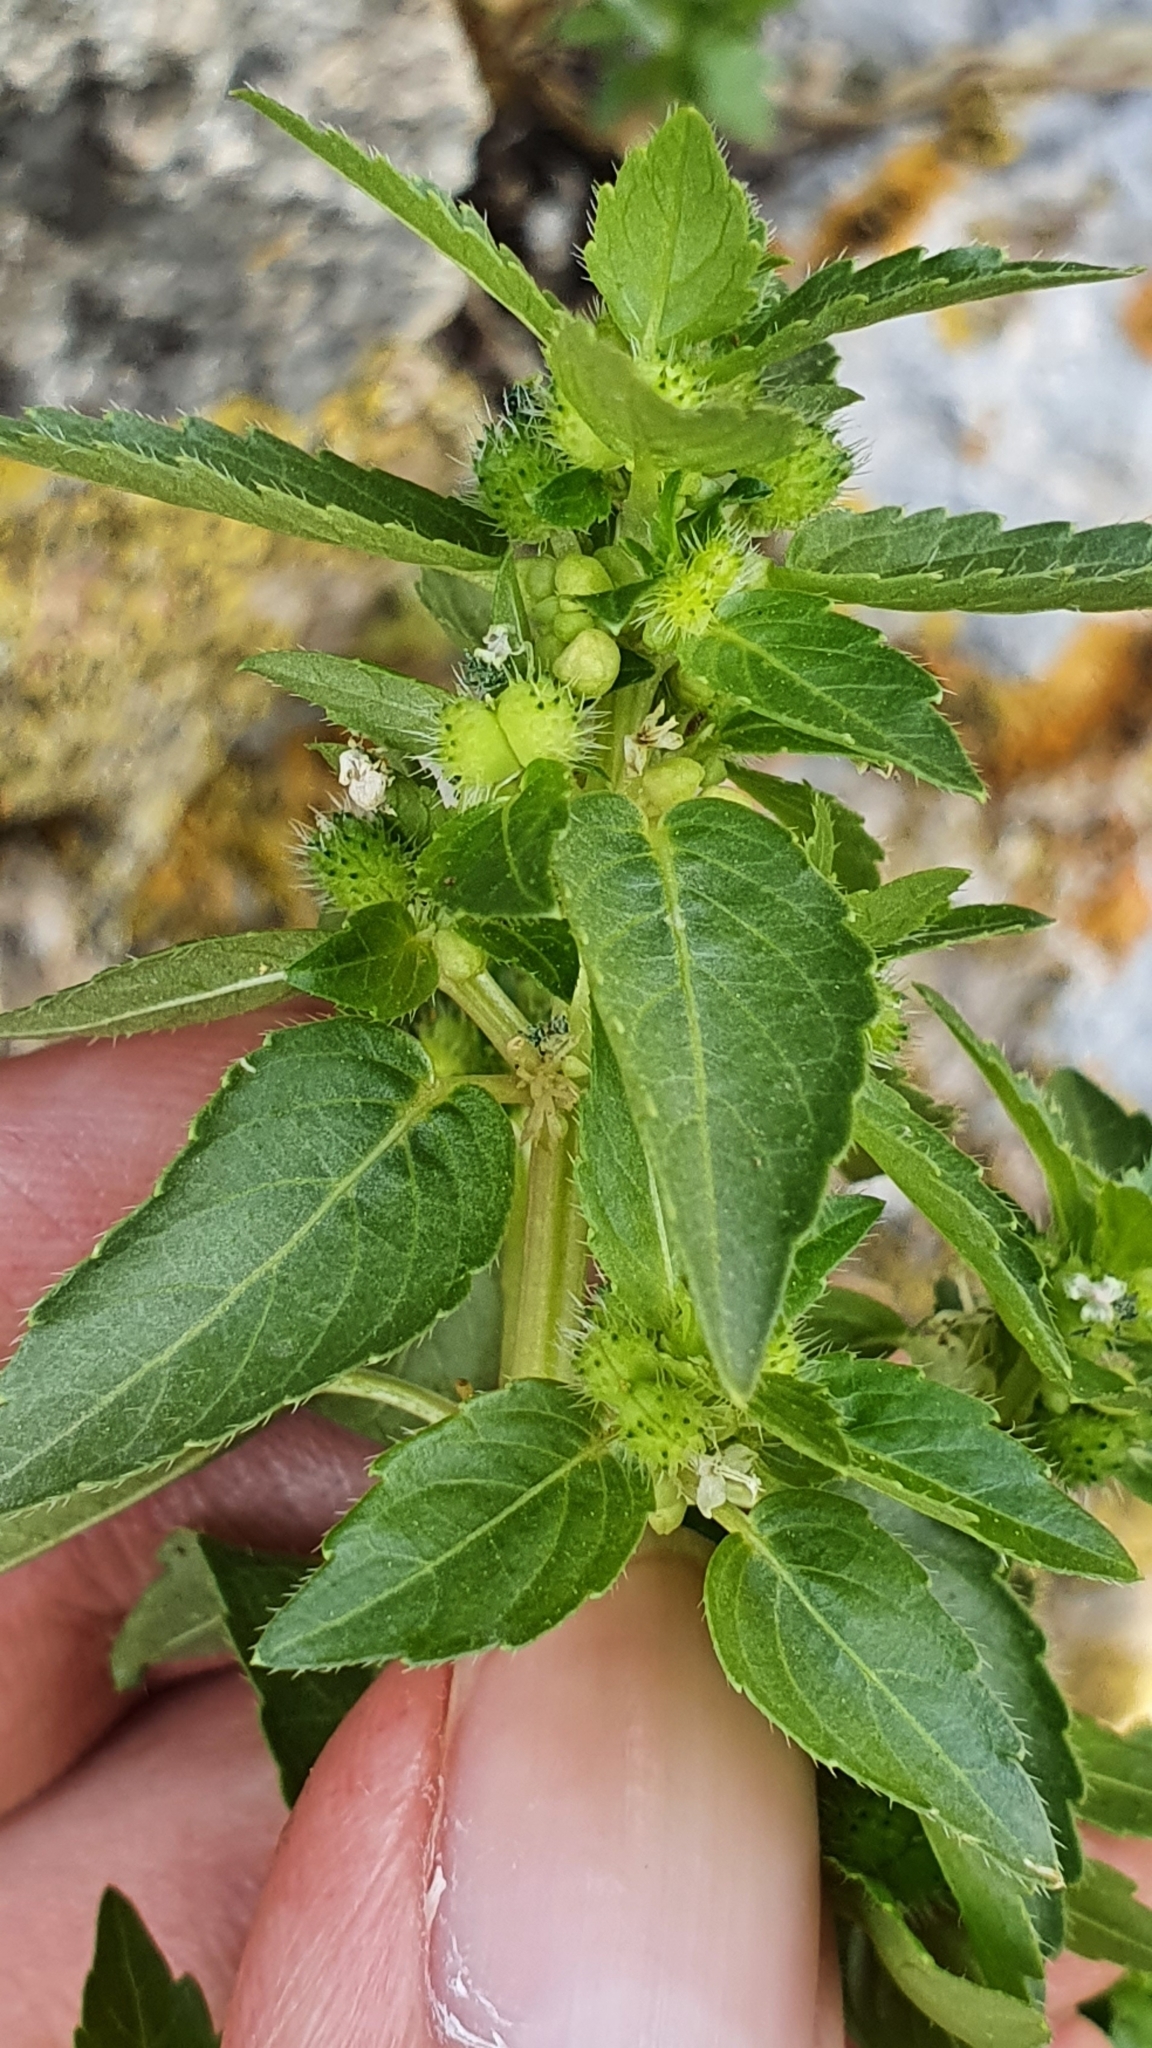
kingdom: Plantae
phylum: Tracheophyta
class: Magnoliopsida
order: Malpighiales
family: Euphorbiaceae
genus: Mercurialis
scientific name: Mercurialis annua
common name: Annual mercury
